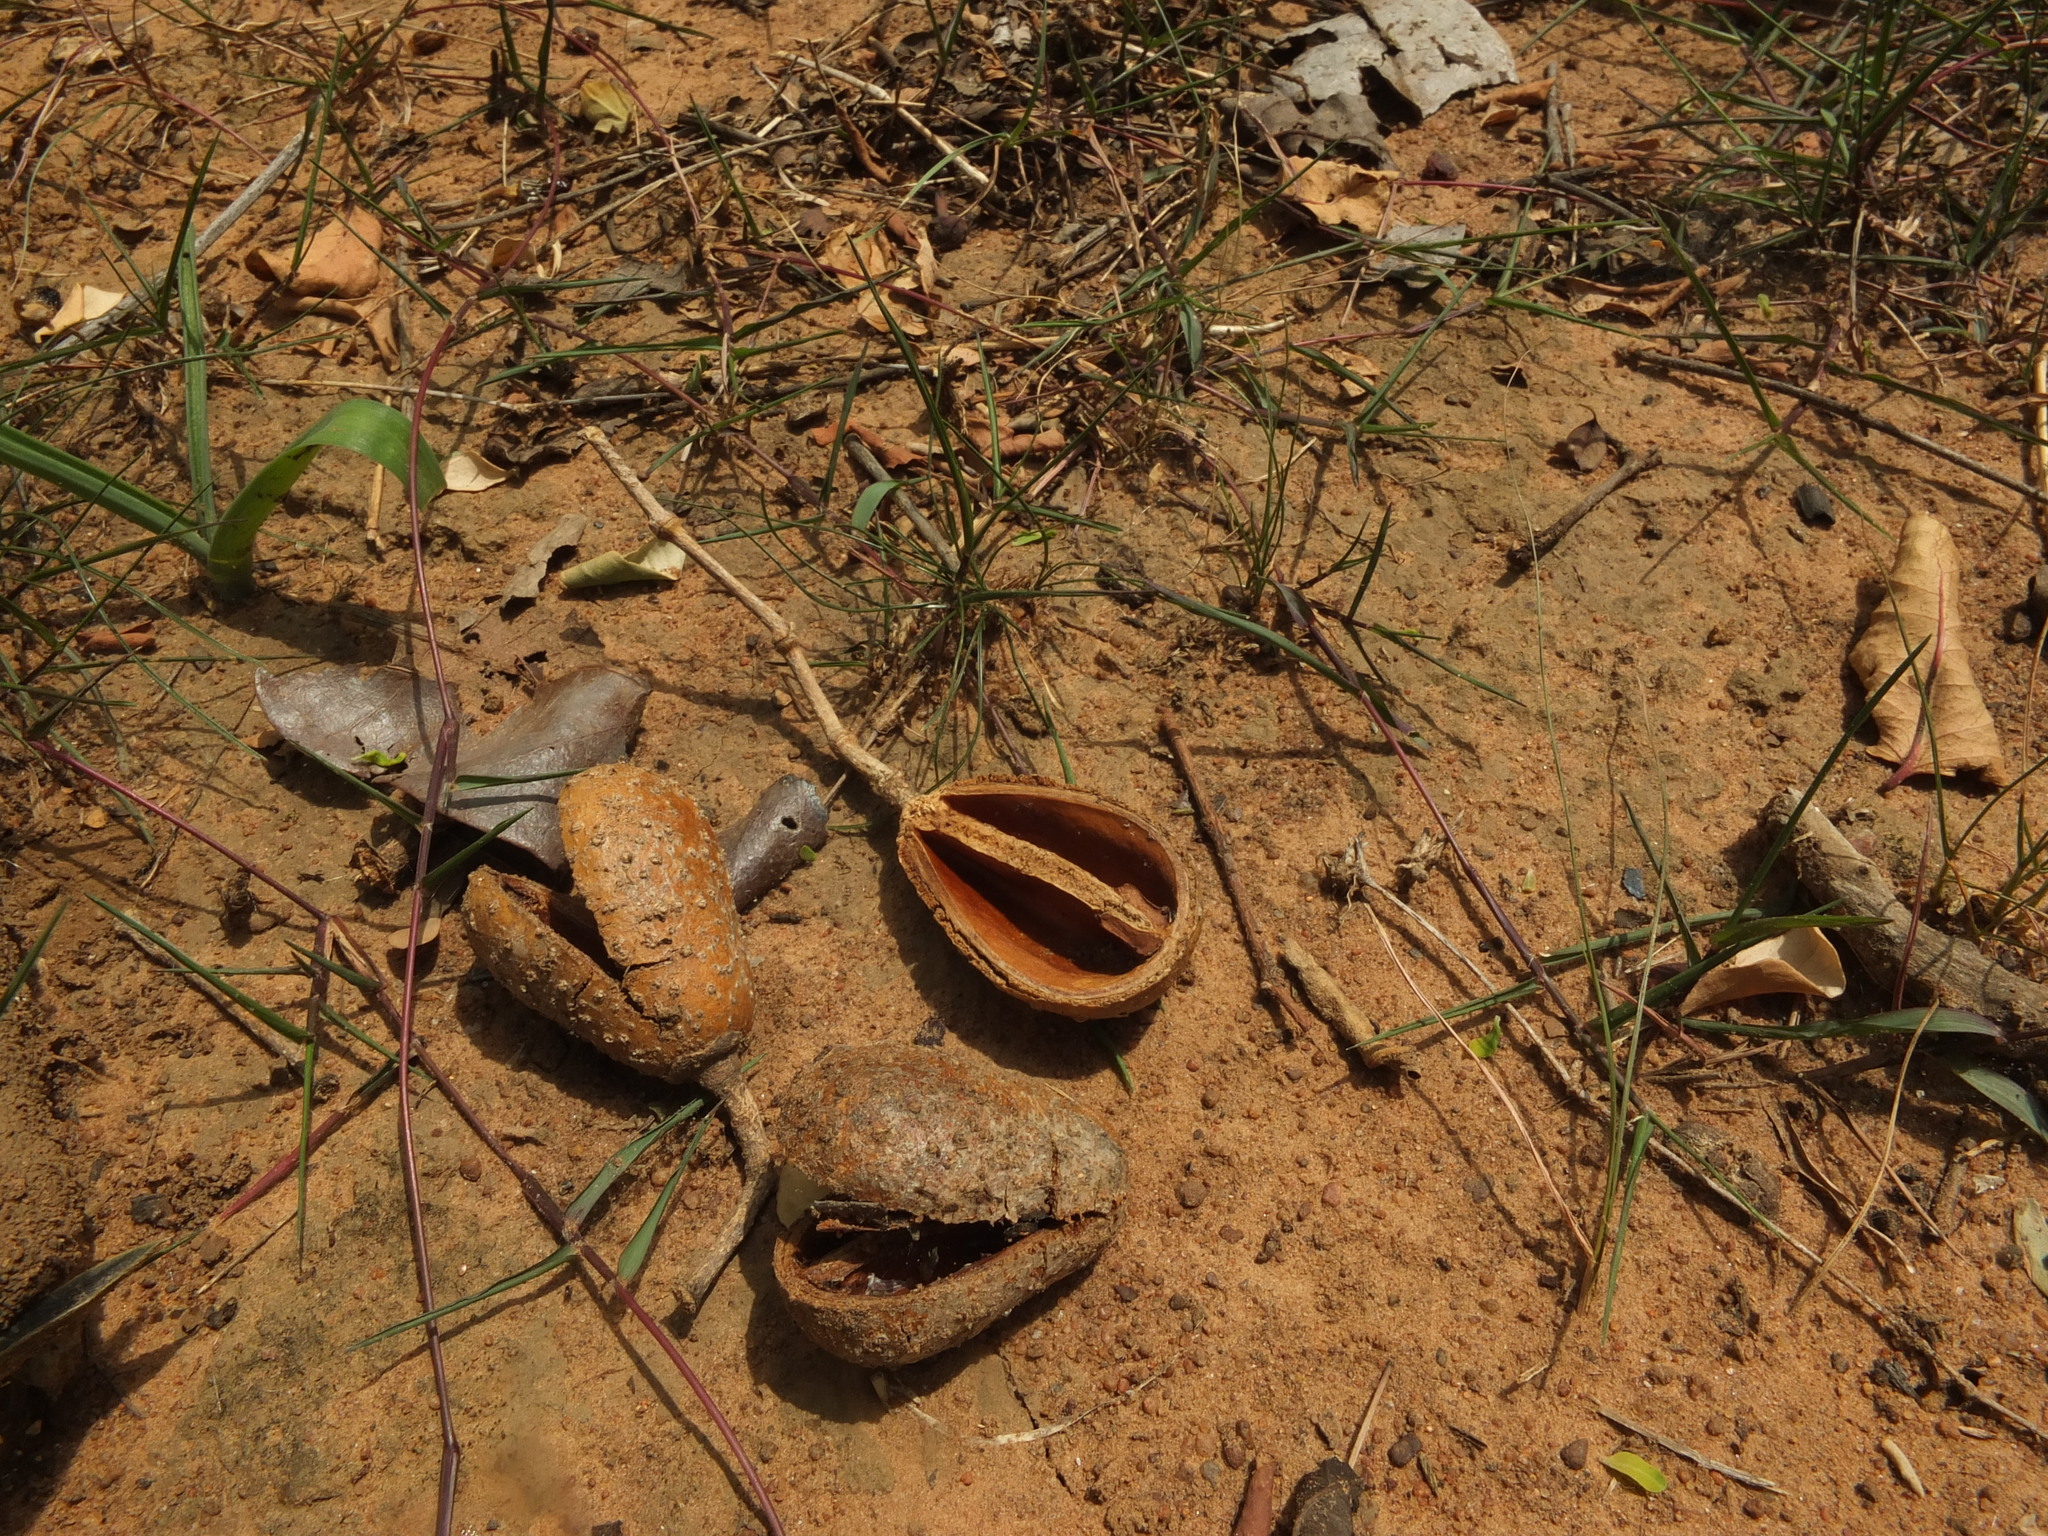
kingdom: Plantae
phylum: Tracheophyta
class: Magnoliopsida
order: Lamiales
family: Oleaceae
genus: Schrebera
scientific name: Schrebera swietenioides
